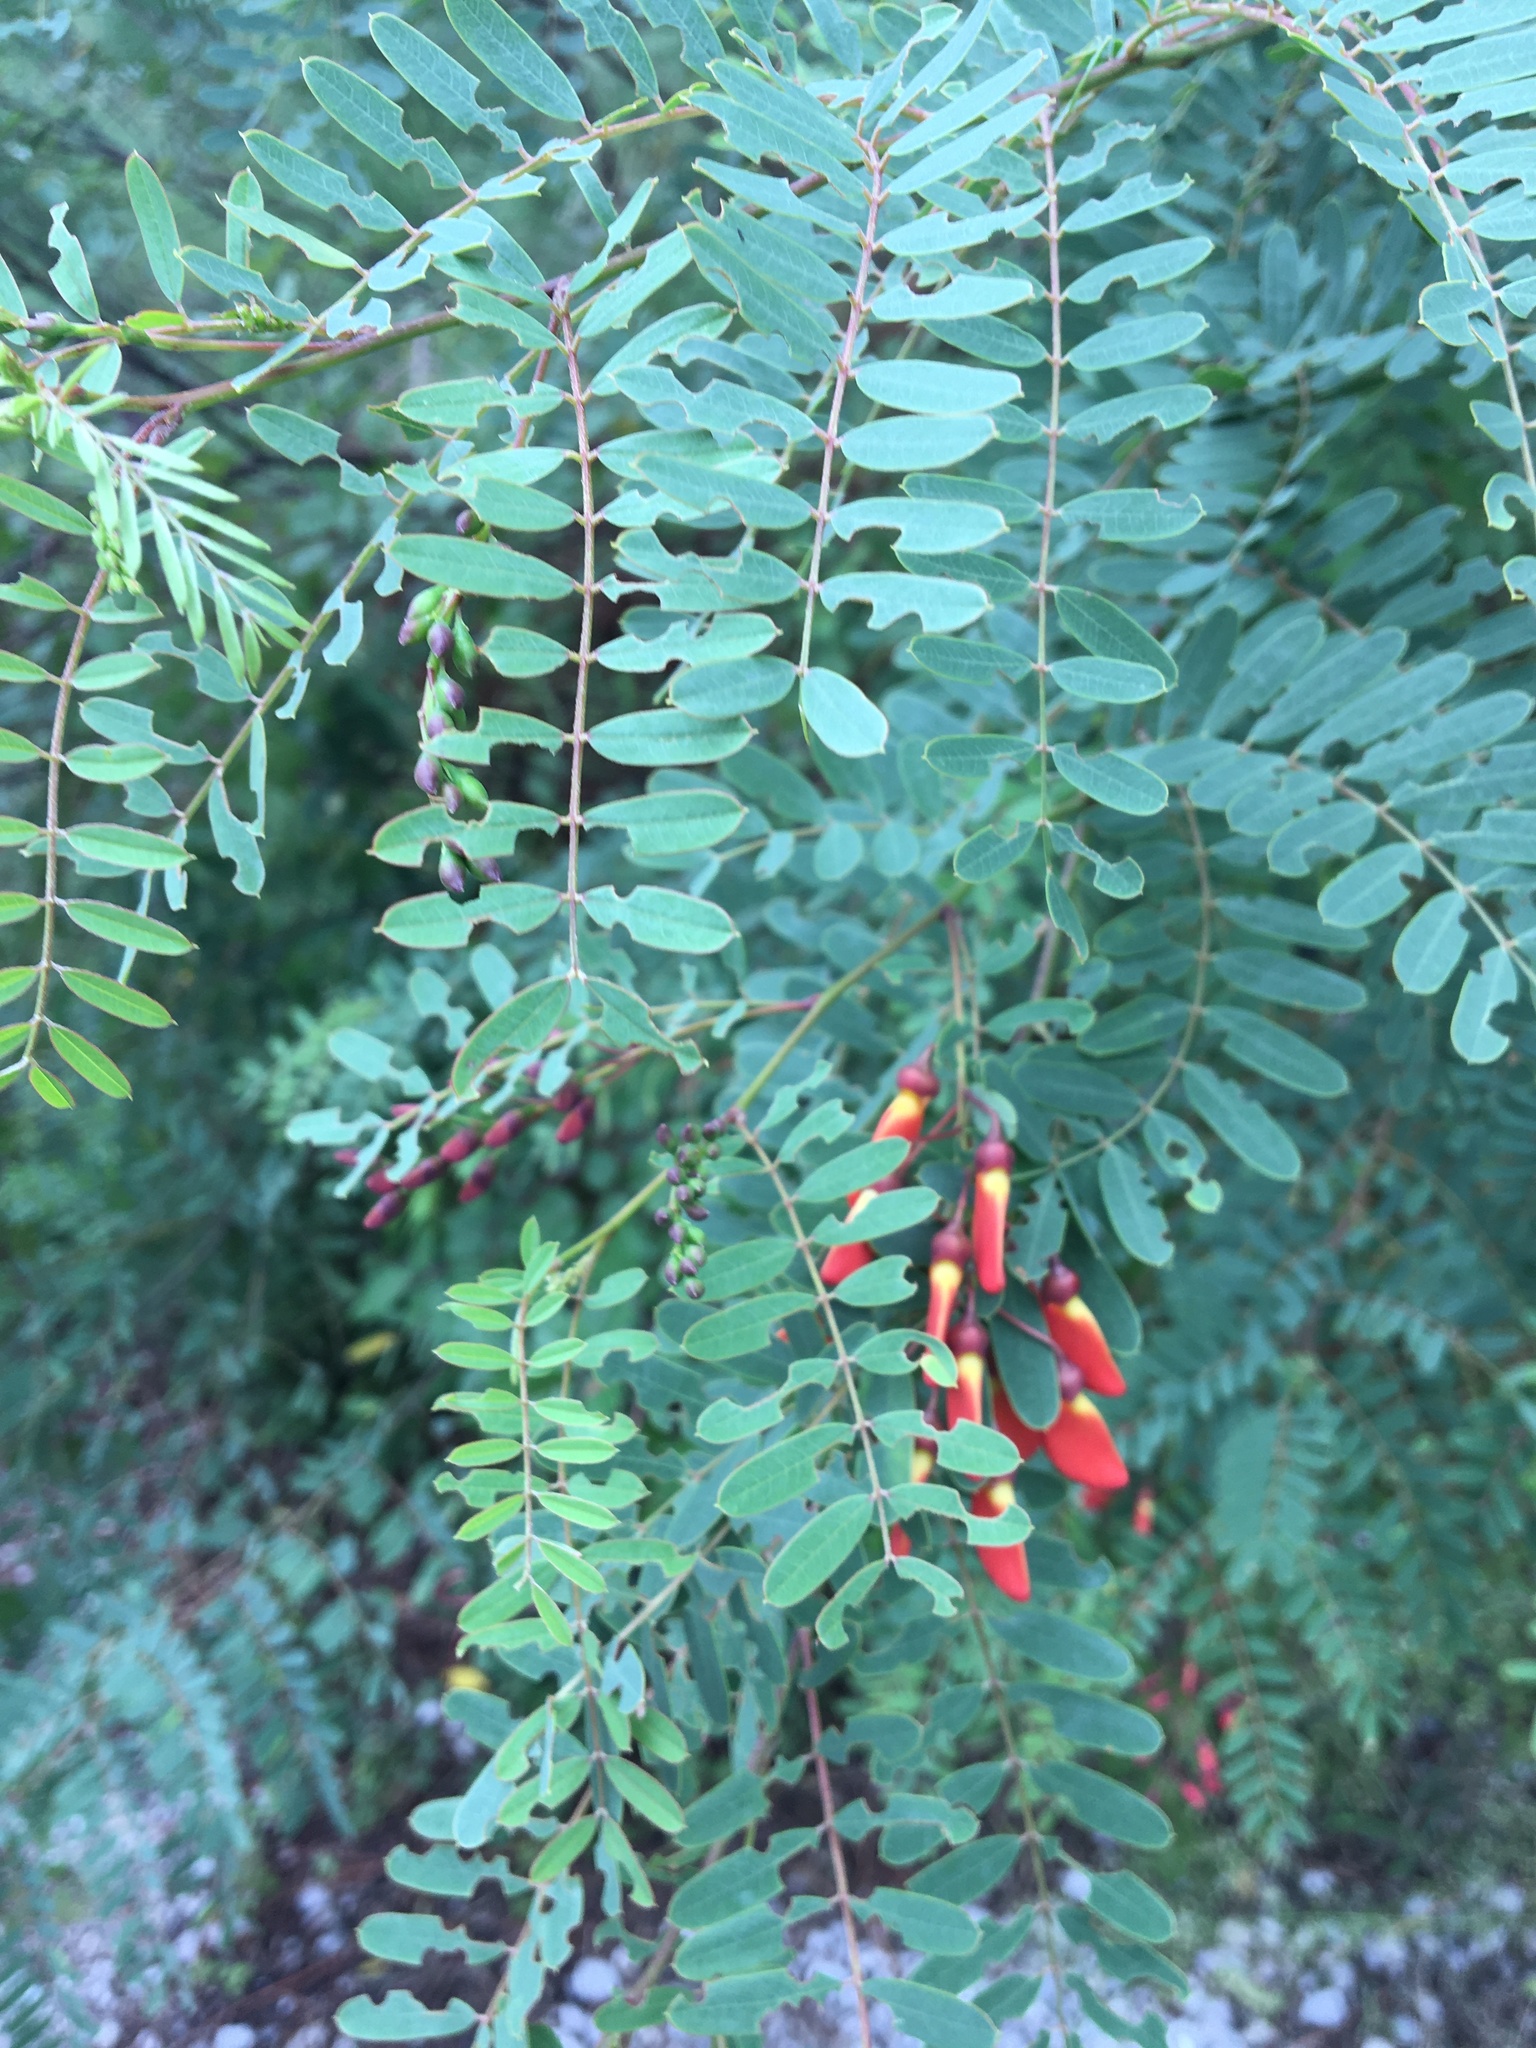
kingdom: Plantae
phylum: Tracheophyta
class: Magnoliopsida
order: Fabales
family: Fabaceae
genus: Sesbania
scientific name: Sesbania punicea
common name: Rattlebox
